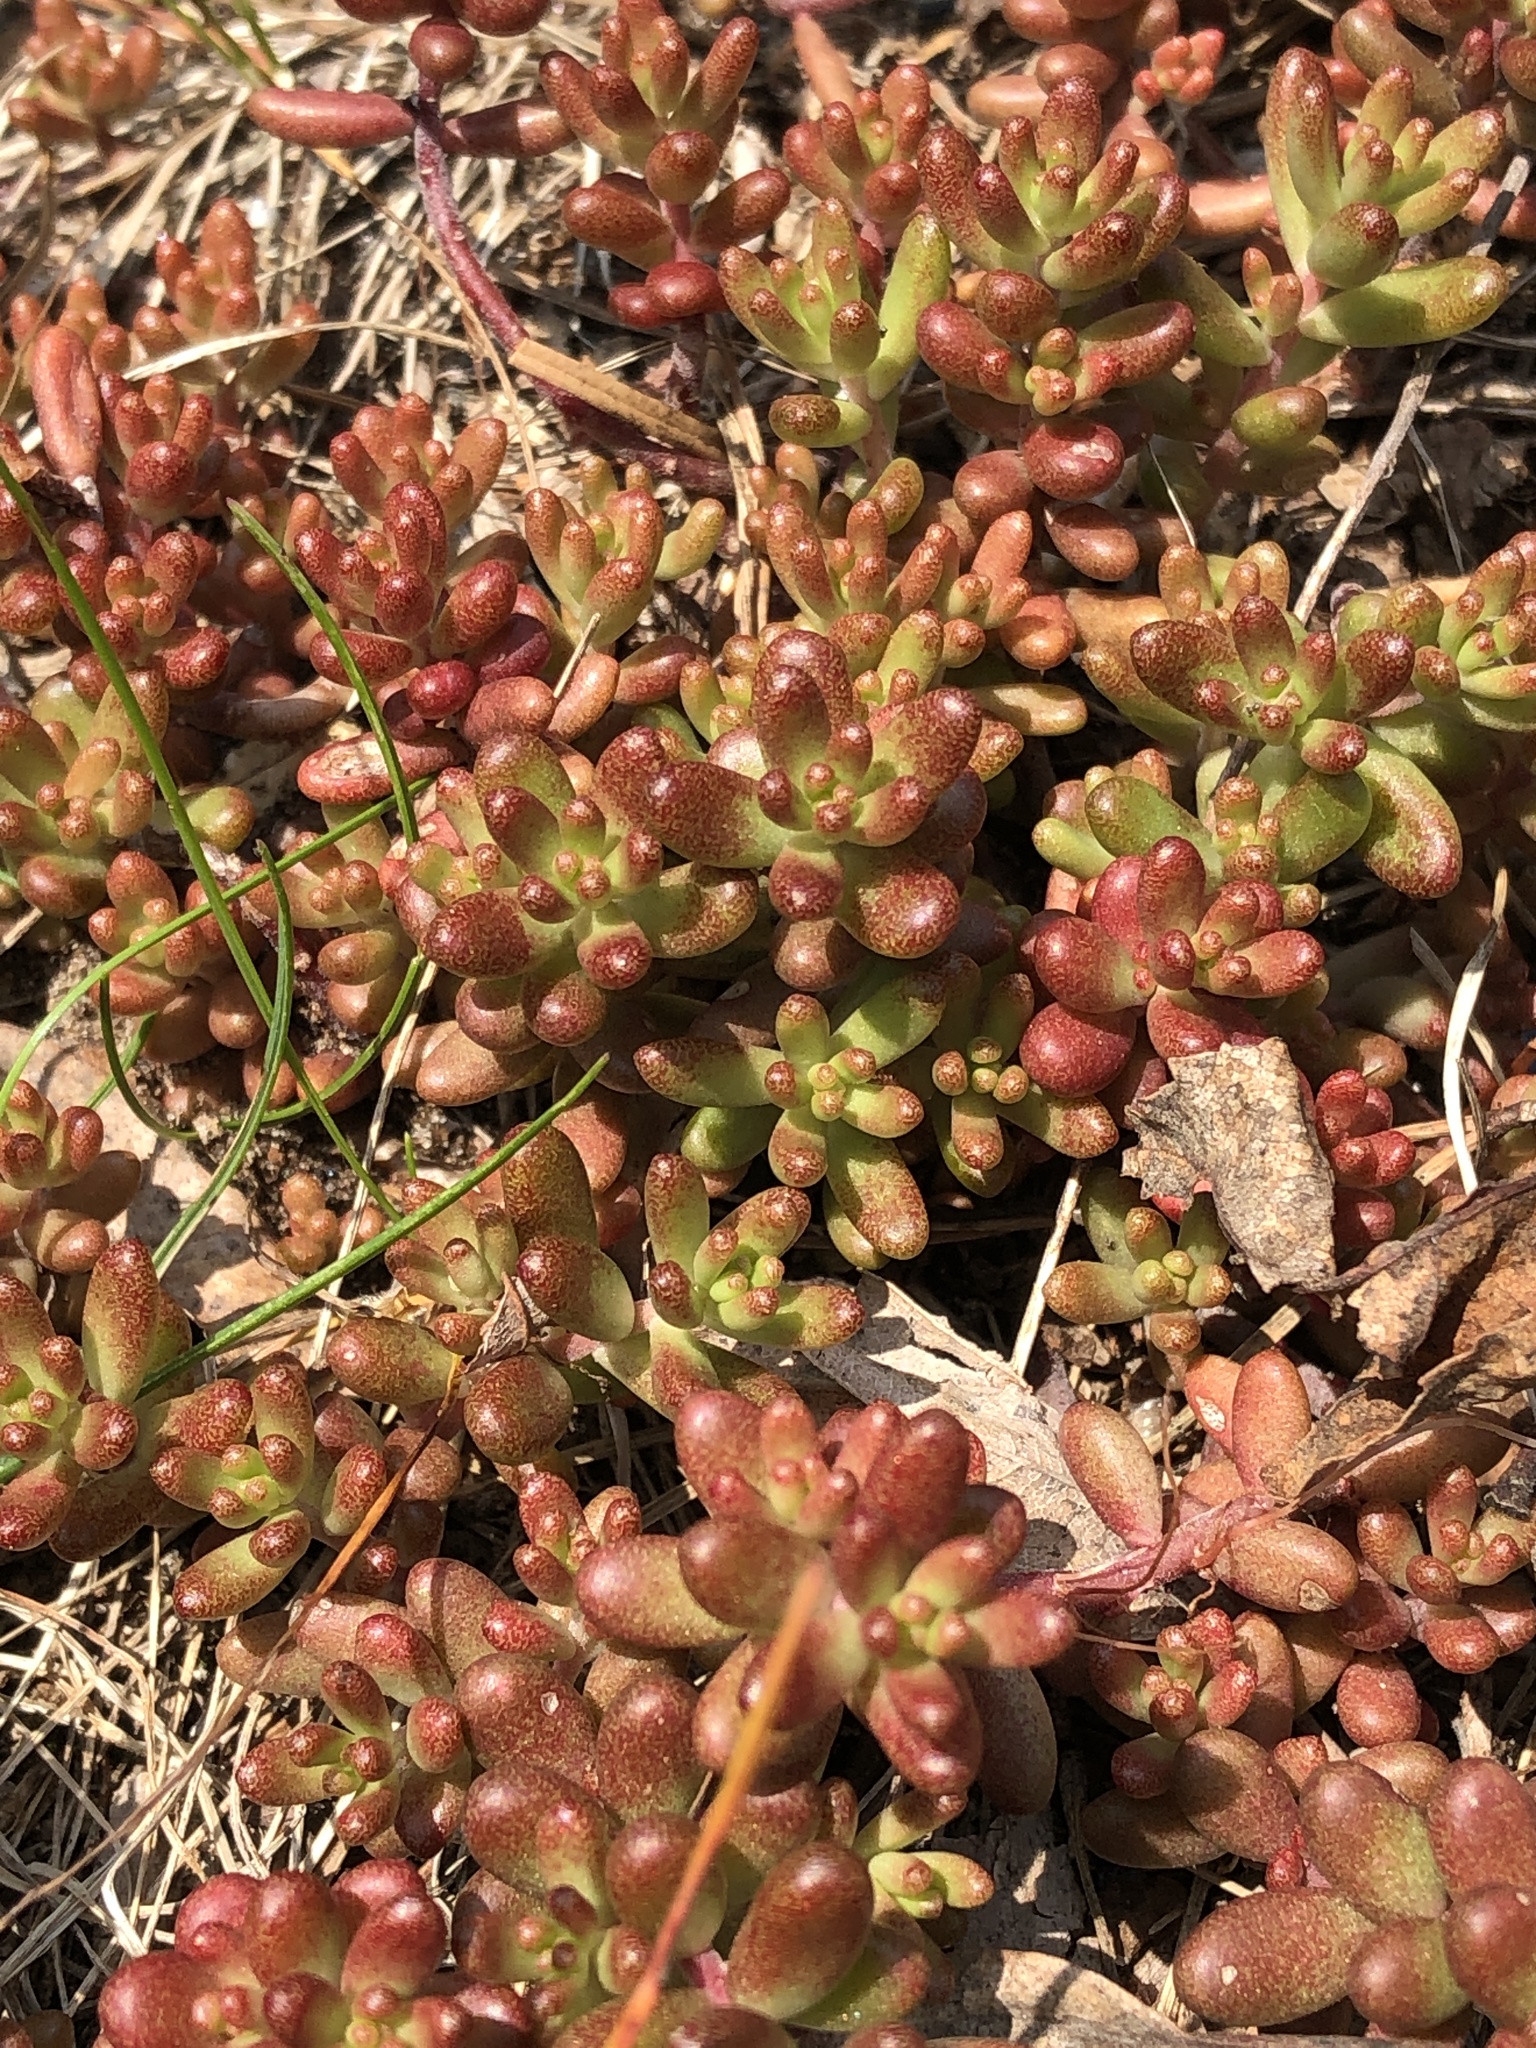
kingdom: Plantae
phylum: Tracheophyta
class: Magnoliopsida
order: Saxifragales
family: Crassulaceae
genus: Sedum
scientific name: Sedum album
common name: White stonecrop
